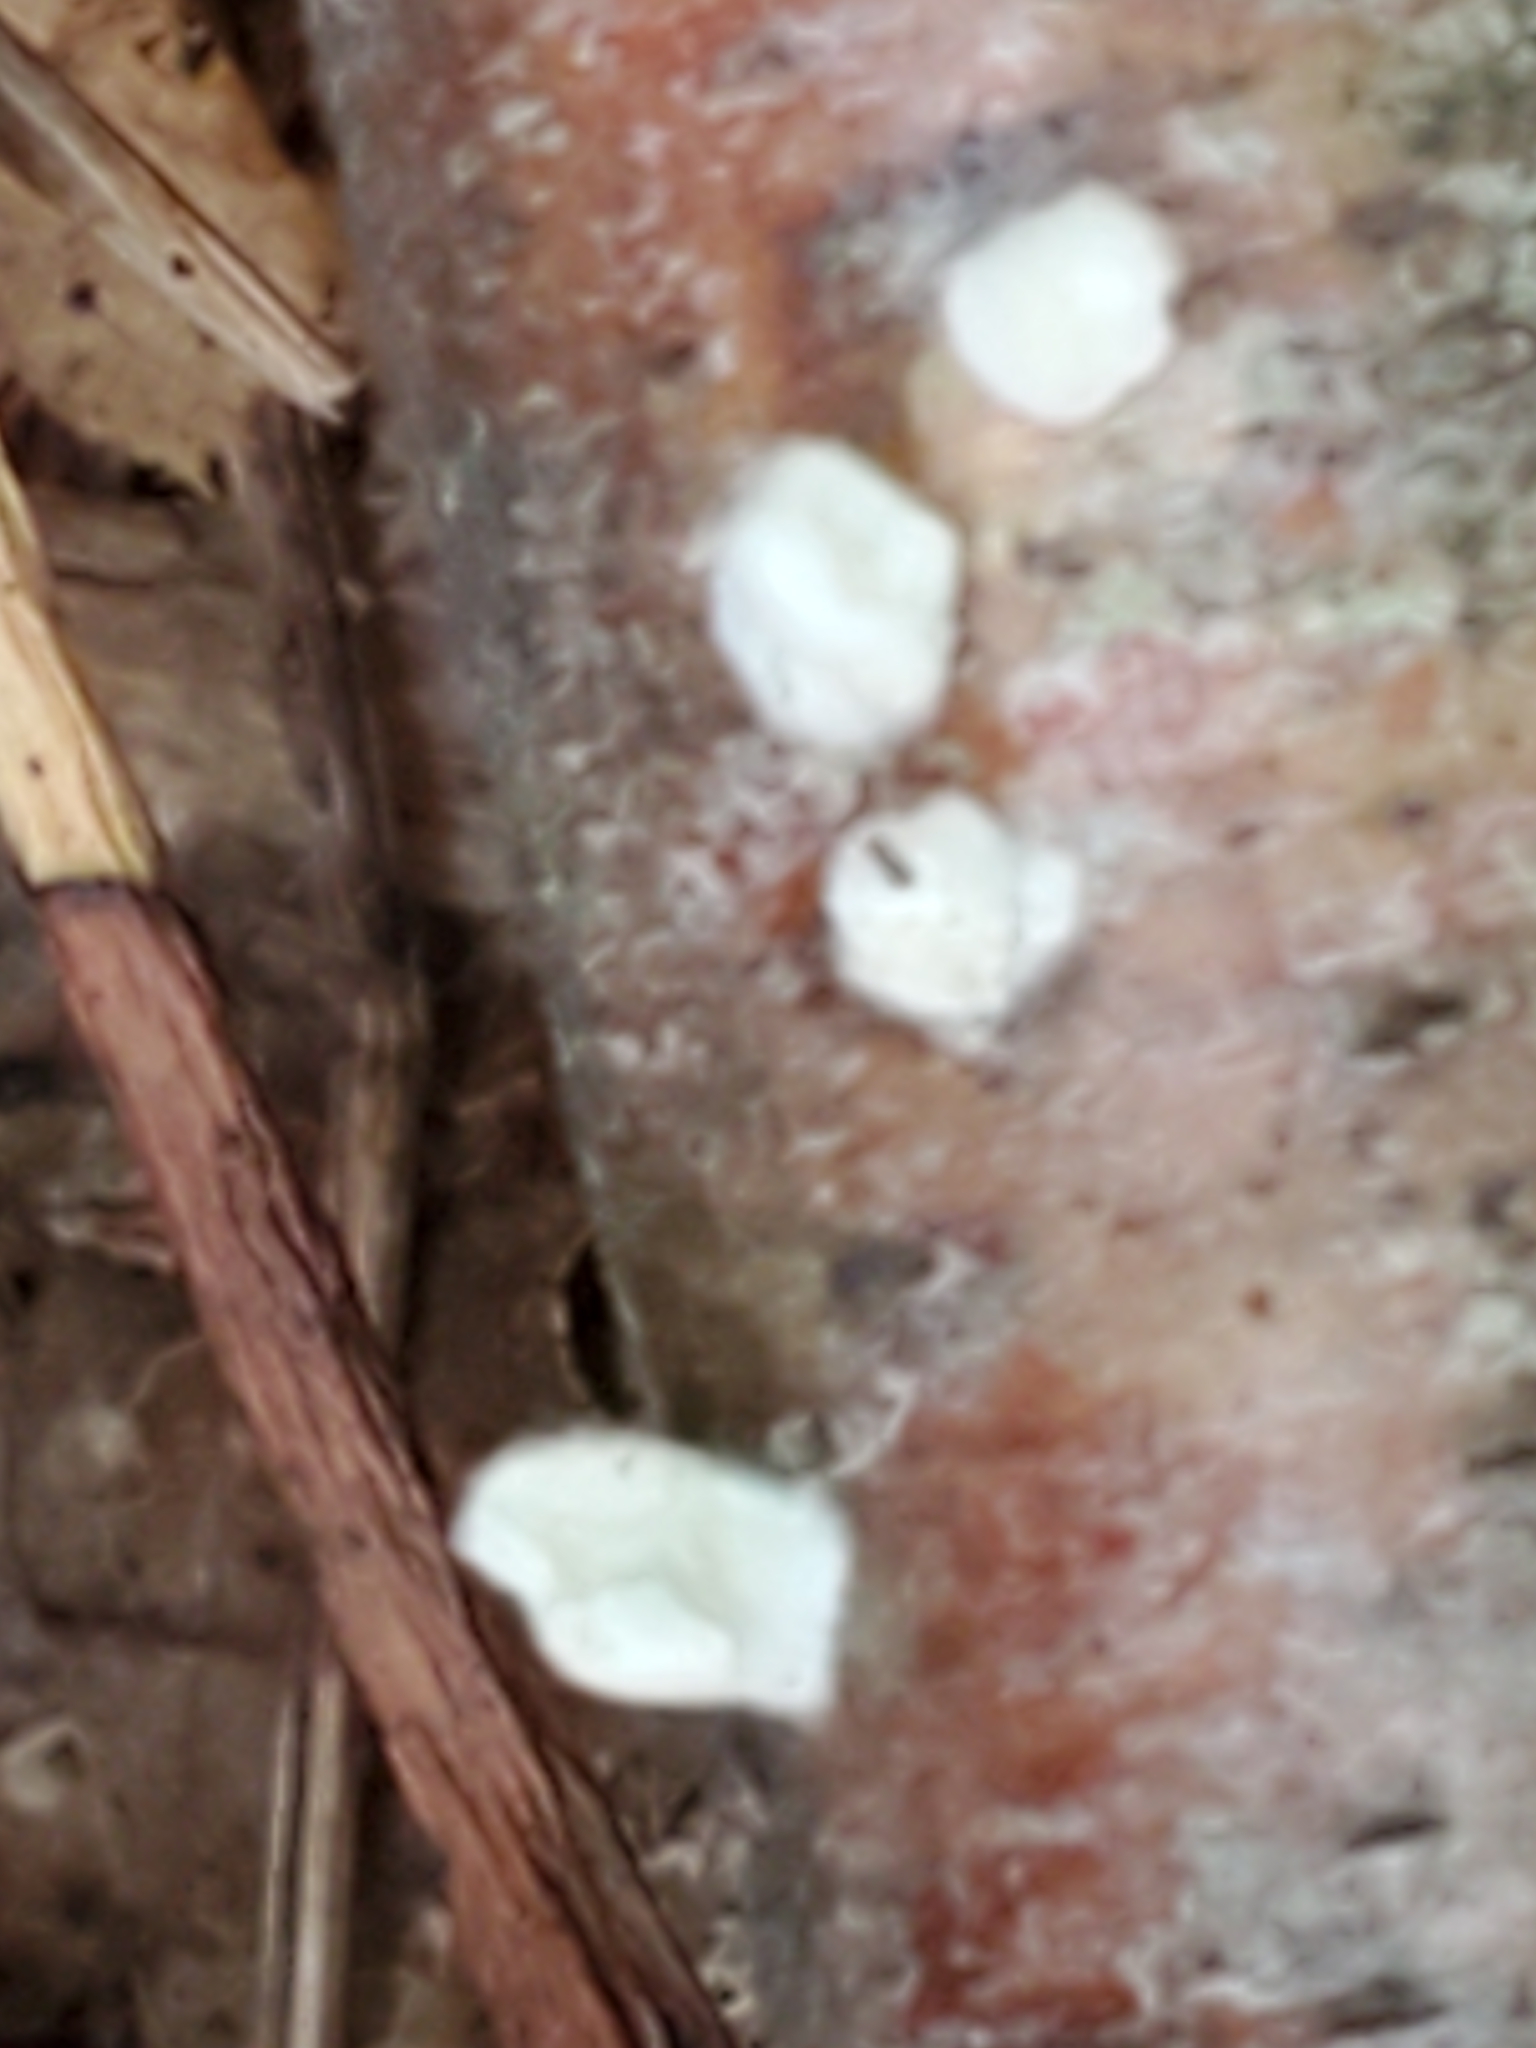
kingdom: Fungi
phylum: Basidiomycota
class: Agaricomycetes
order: Agaricales
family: Schizophyllaceae
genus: Schizophyllum
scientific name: Schizophyllum commune
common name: Common porecrust
